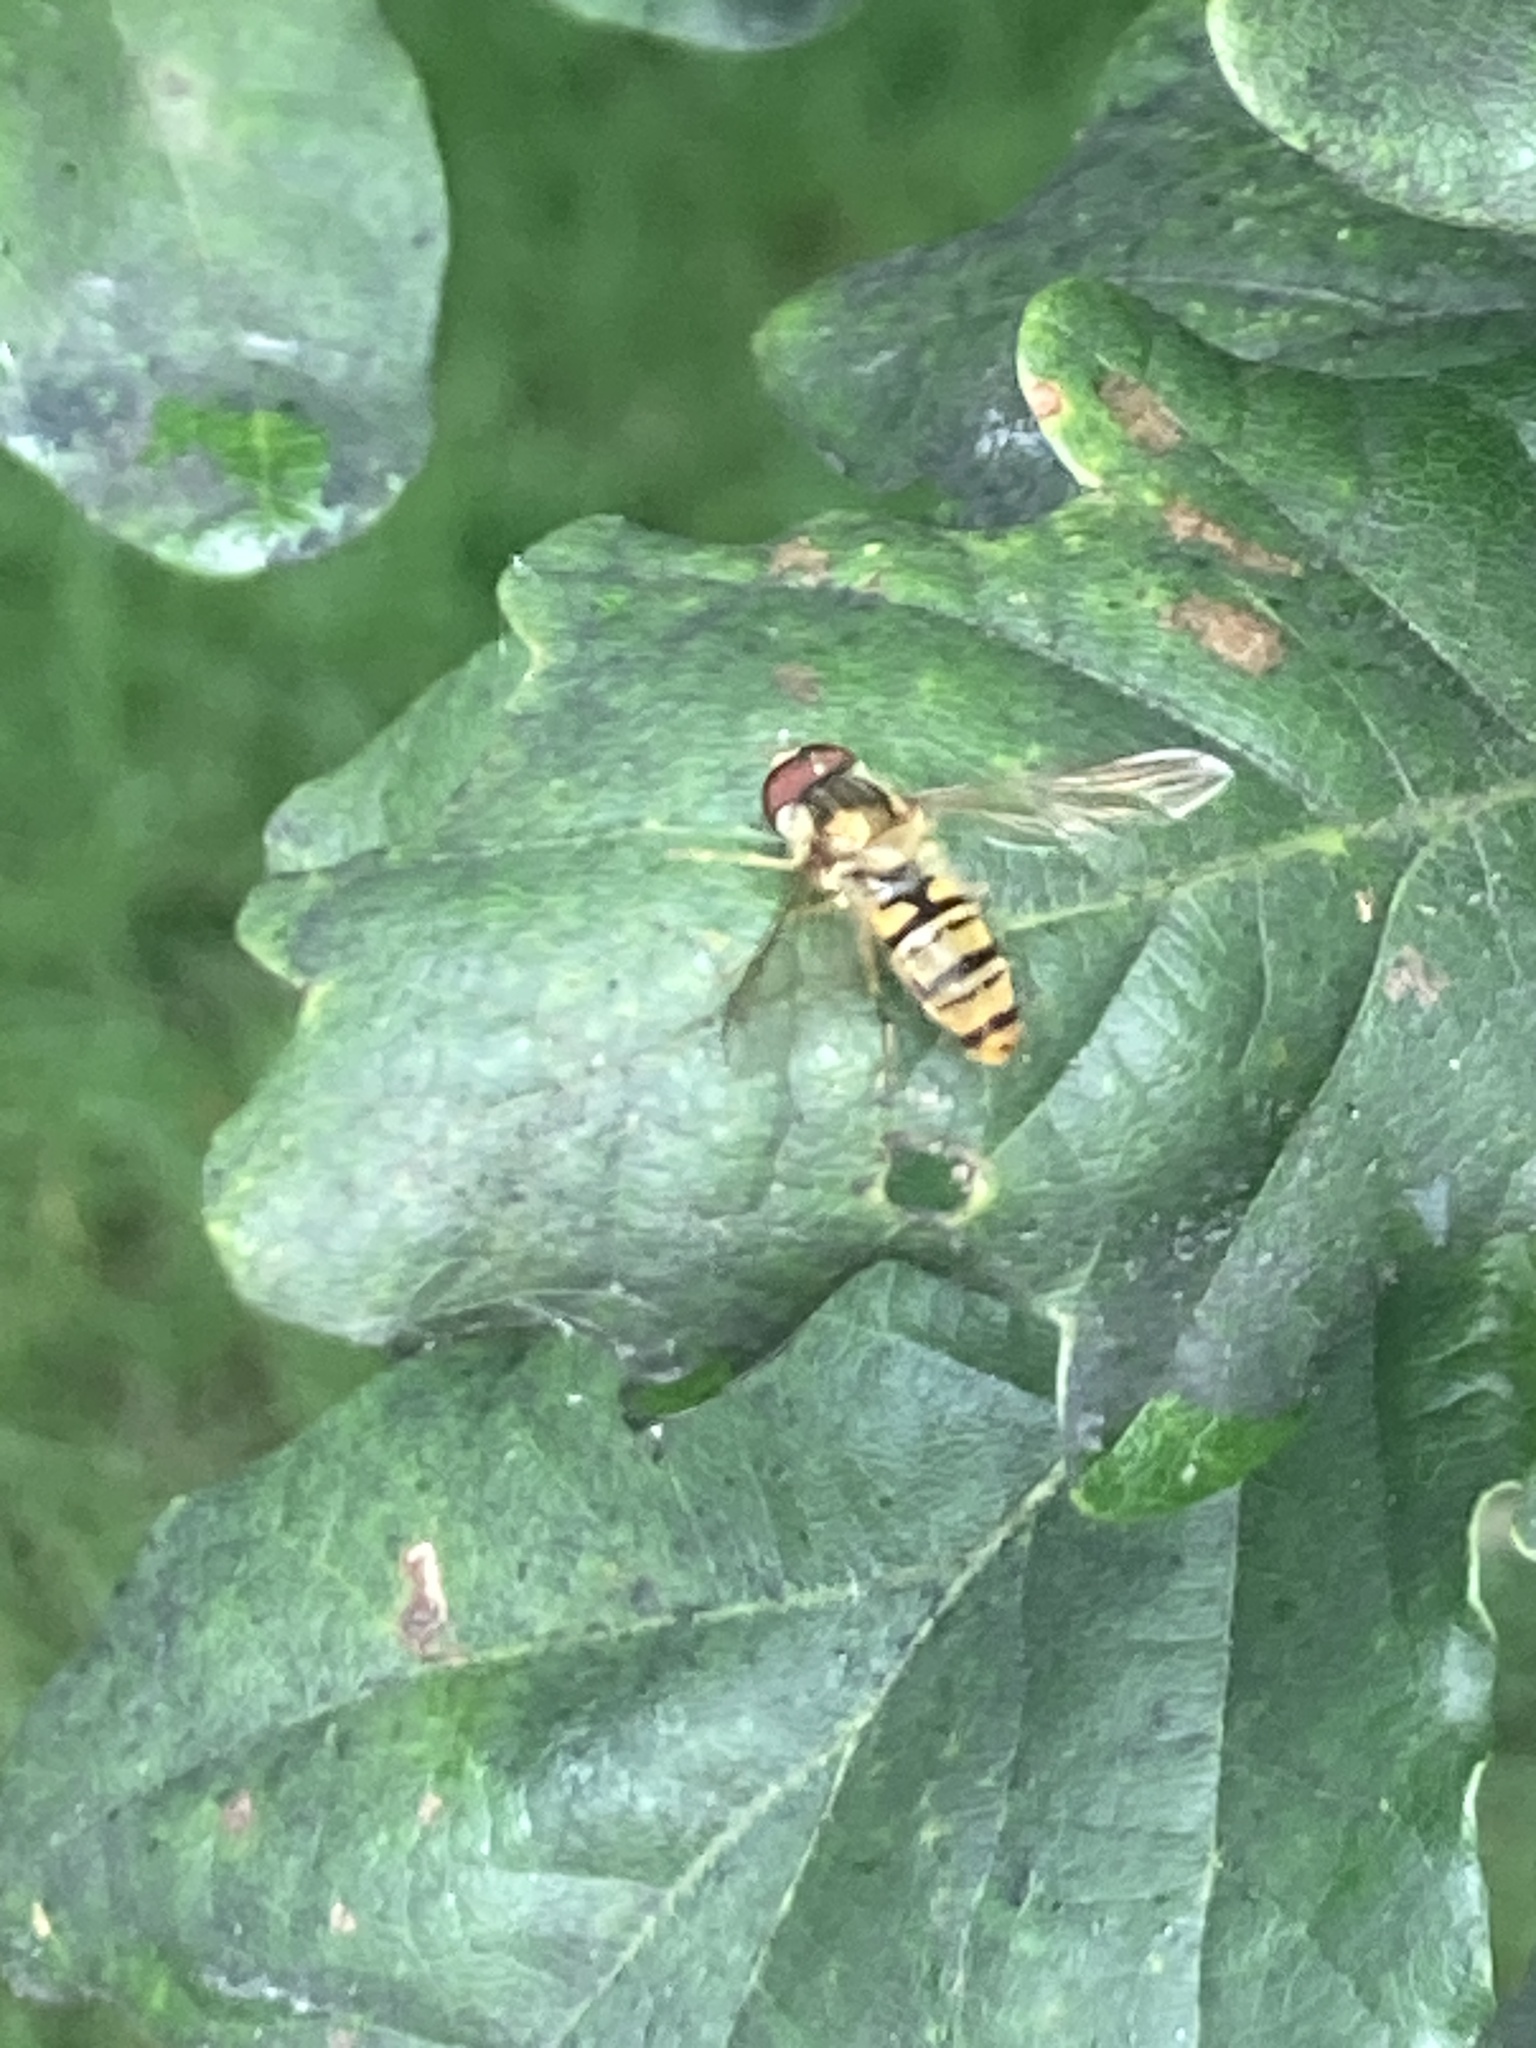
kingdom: Animalia
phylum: Arthropoda
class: Insecta
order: Diptera
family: Syrphidae
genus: Episyrphus
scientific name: Episyrphus balteatus
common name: Marmalade hoverfly
